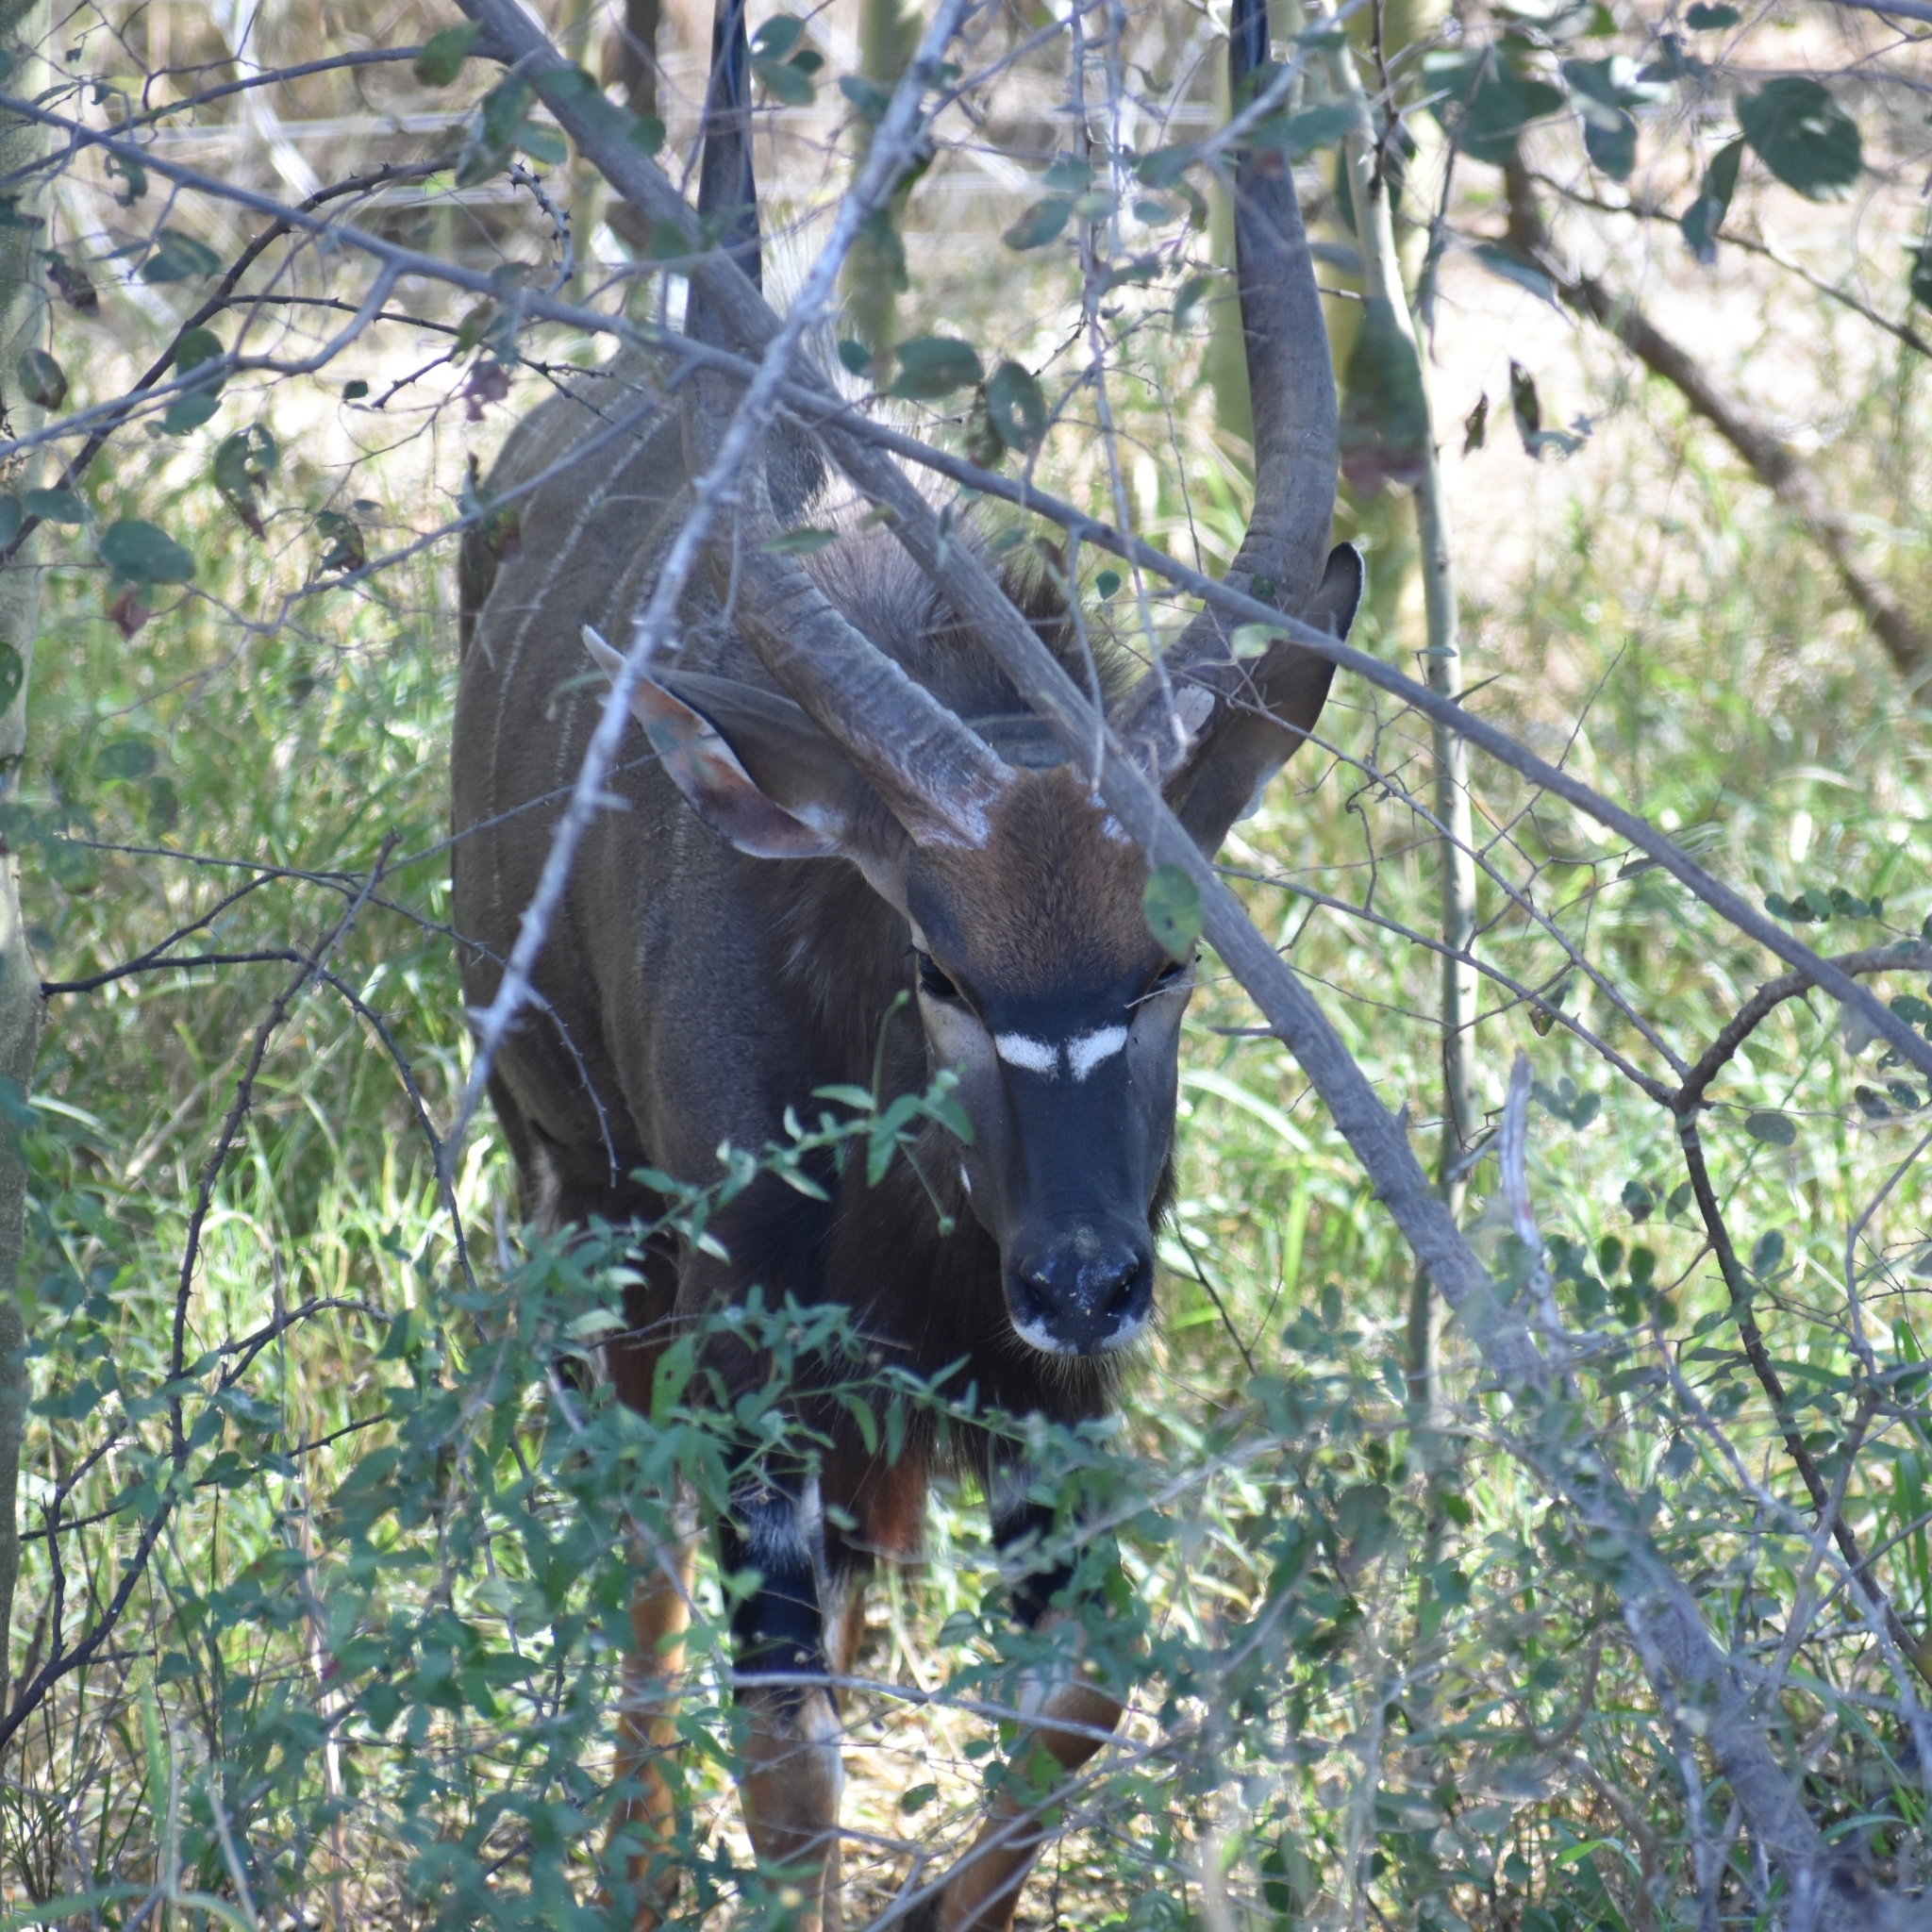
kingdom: Animalia
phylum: Chordata
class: Mammalia
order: Artiodactyla
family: Bovidae
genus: Tragelaphus
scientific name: Tragelaphus angasii
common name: Nyala
